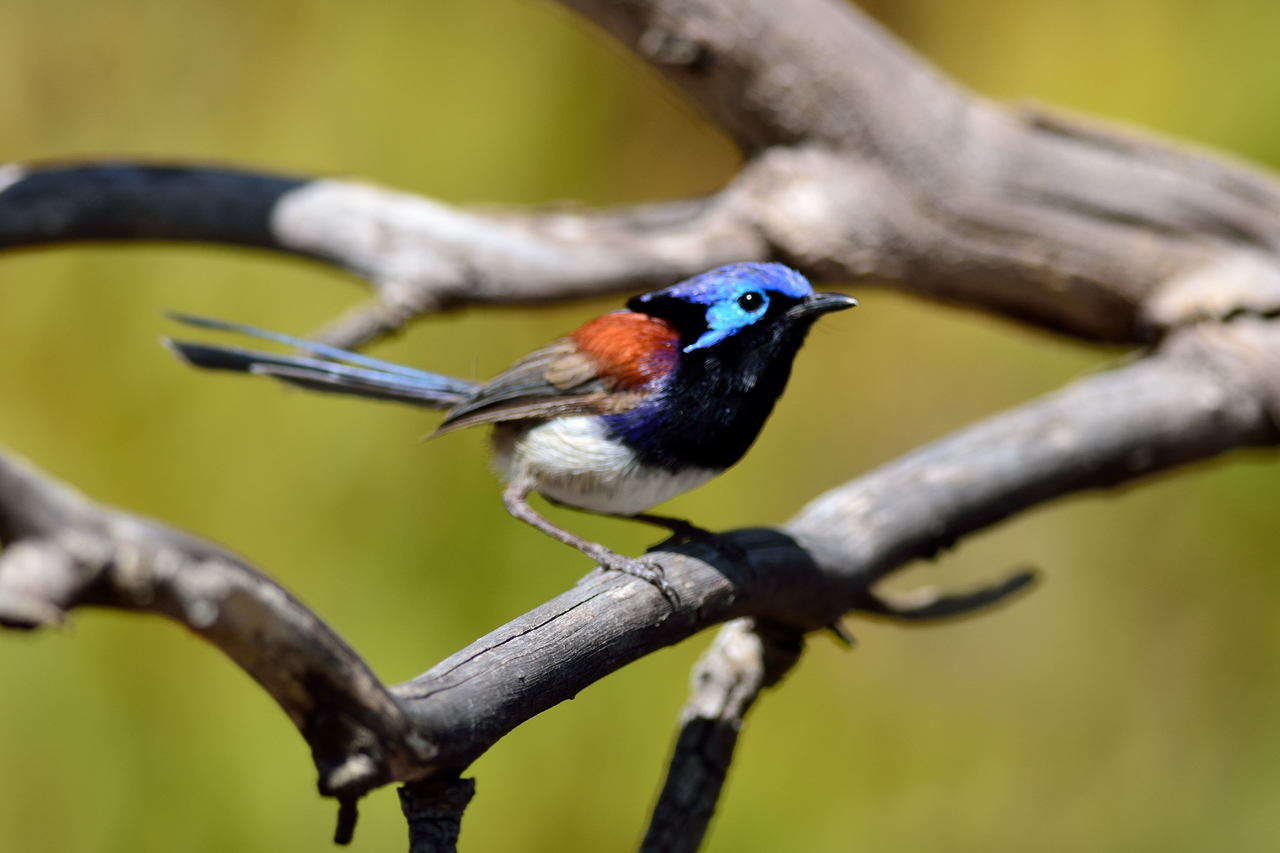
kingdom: Animalia
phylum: Chordata
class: Aves
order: Passeriformes
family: Maluridae
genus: Malurus
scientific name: Malurus assimilis
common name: Purple-backed fairywren
